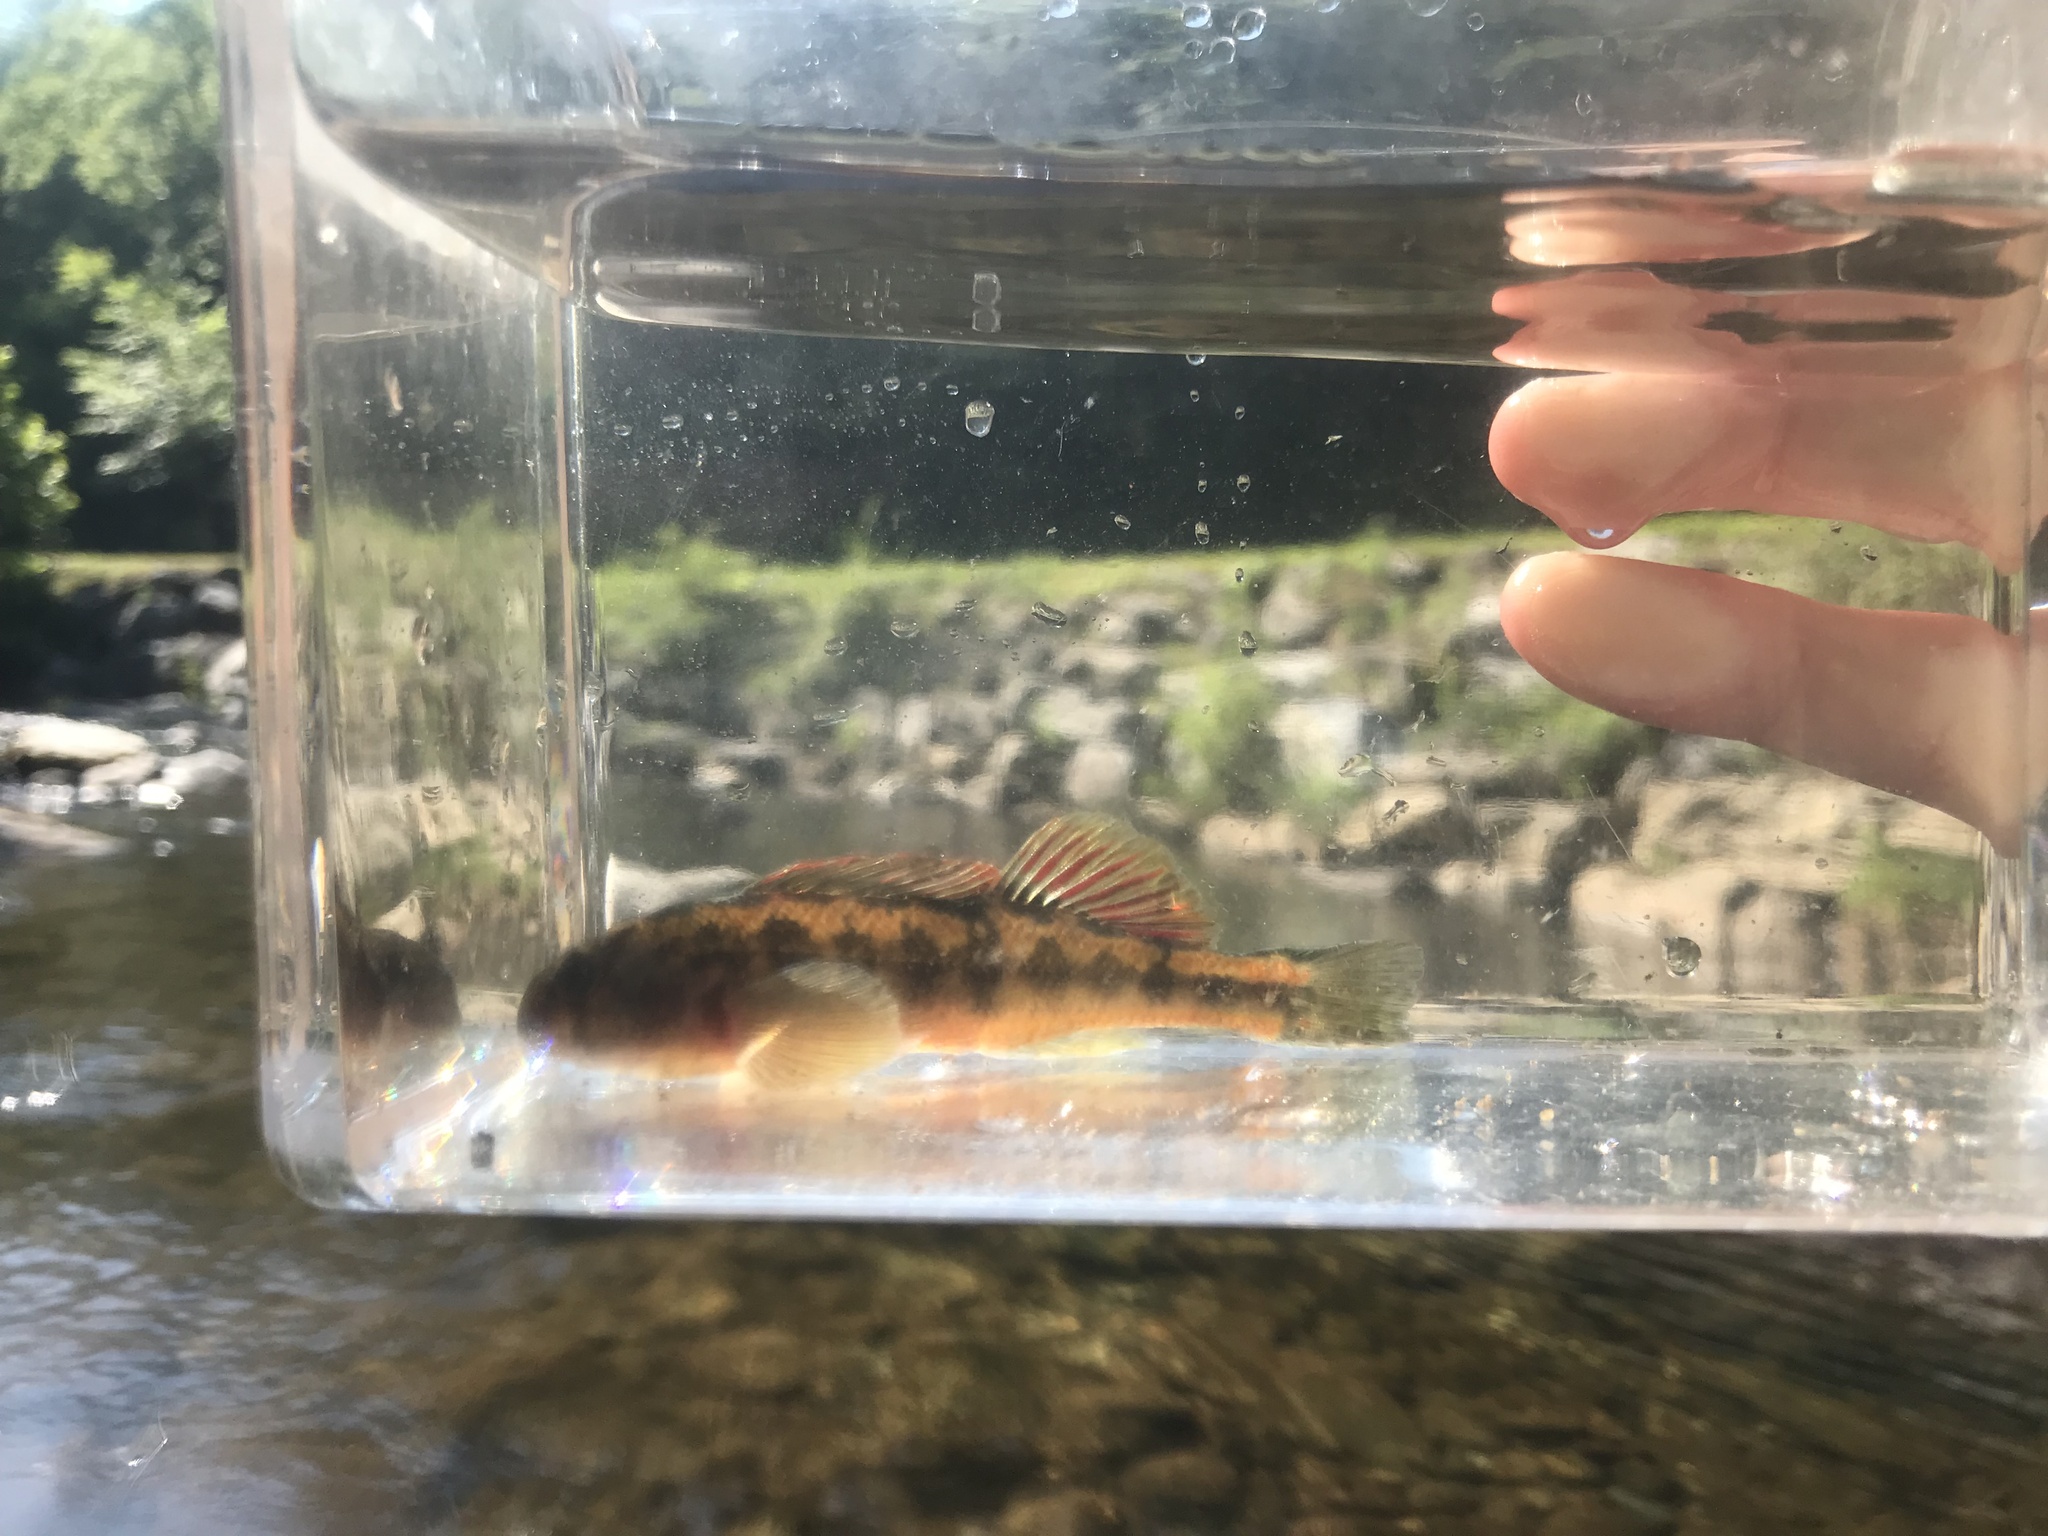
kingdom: Animalia
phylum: Chordata
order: Perciformes
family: Percidae
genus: Etheostoma
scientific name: Etheostoma simoterum
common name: Snubnose darter
